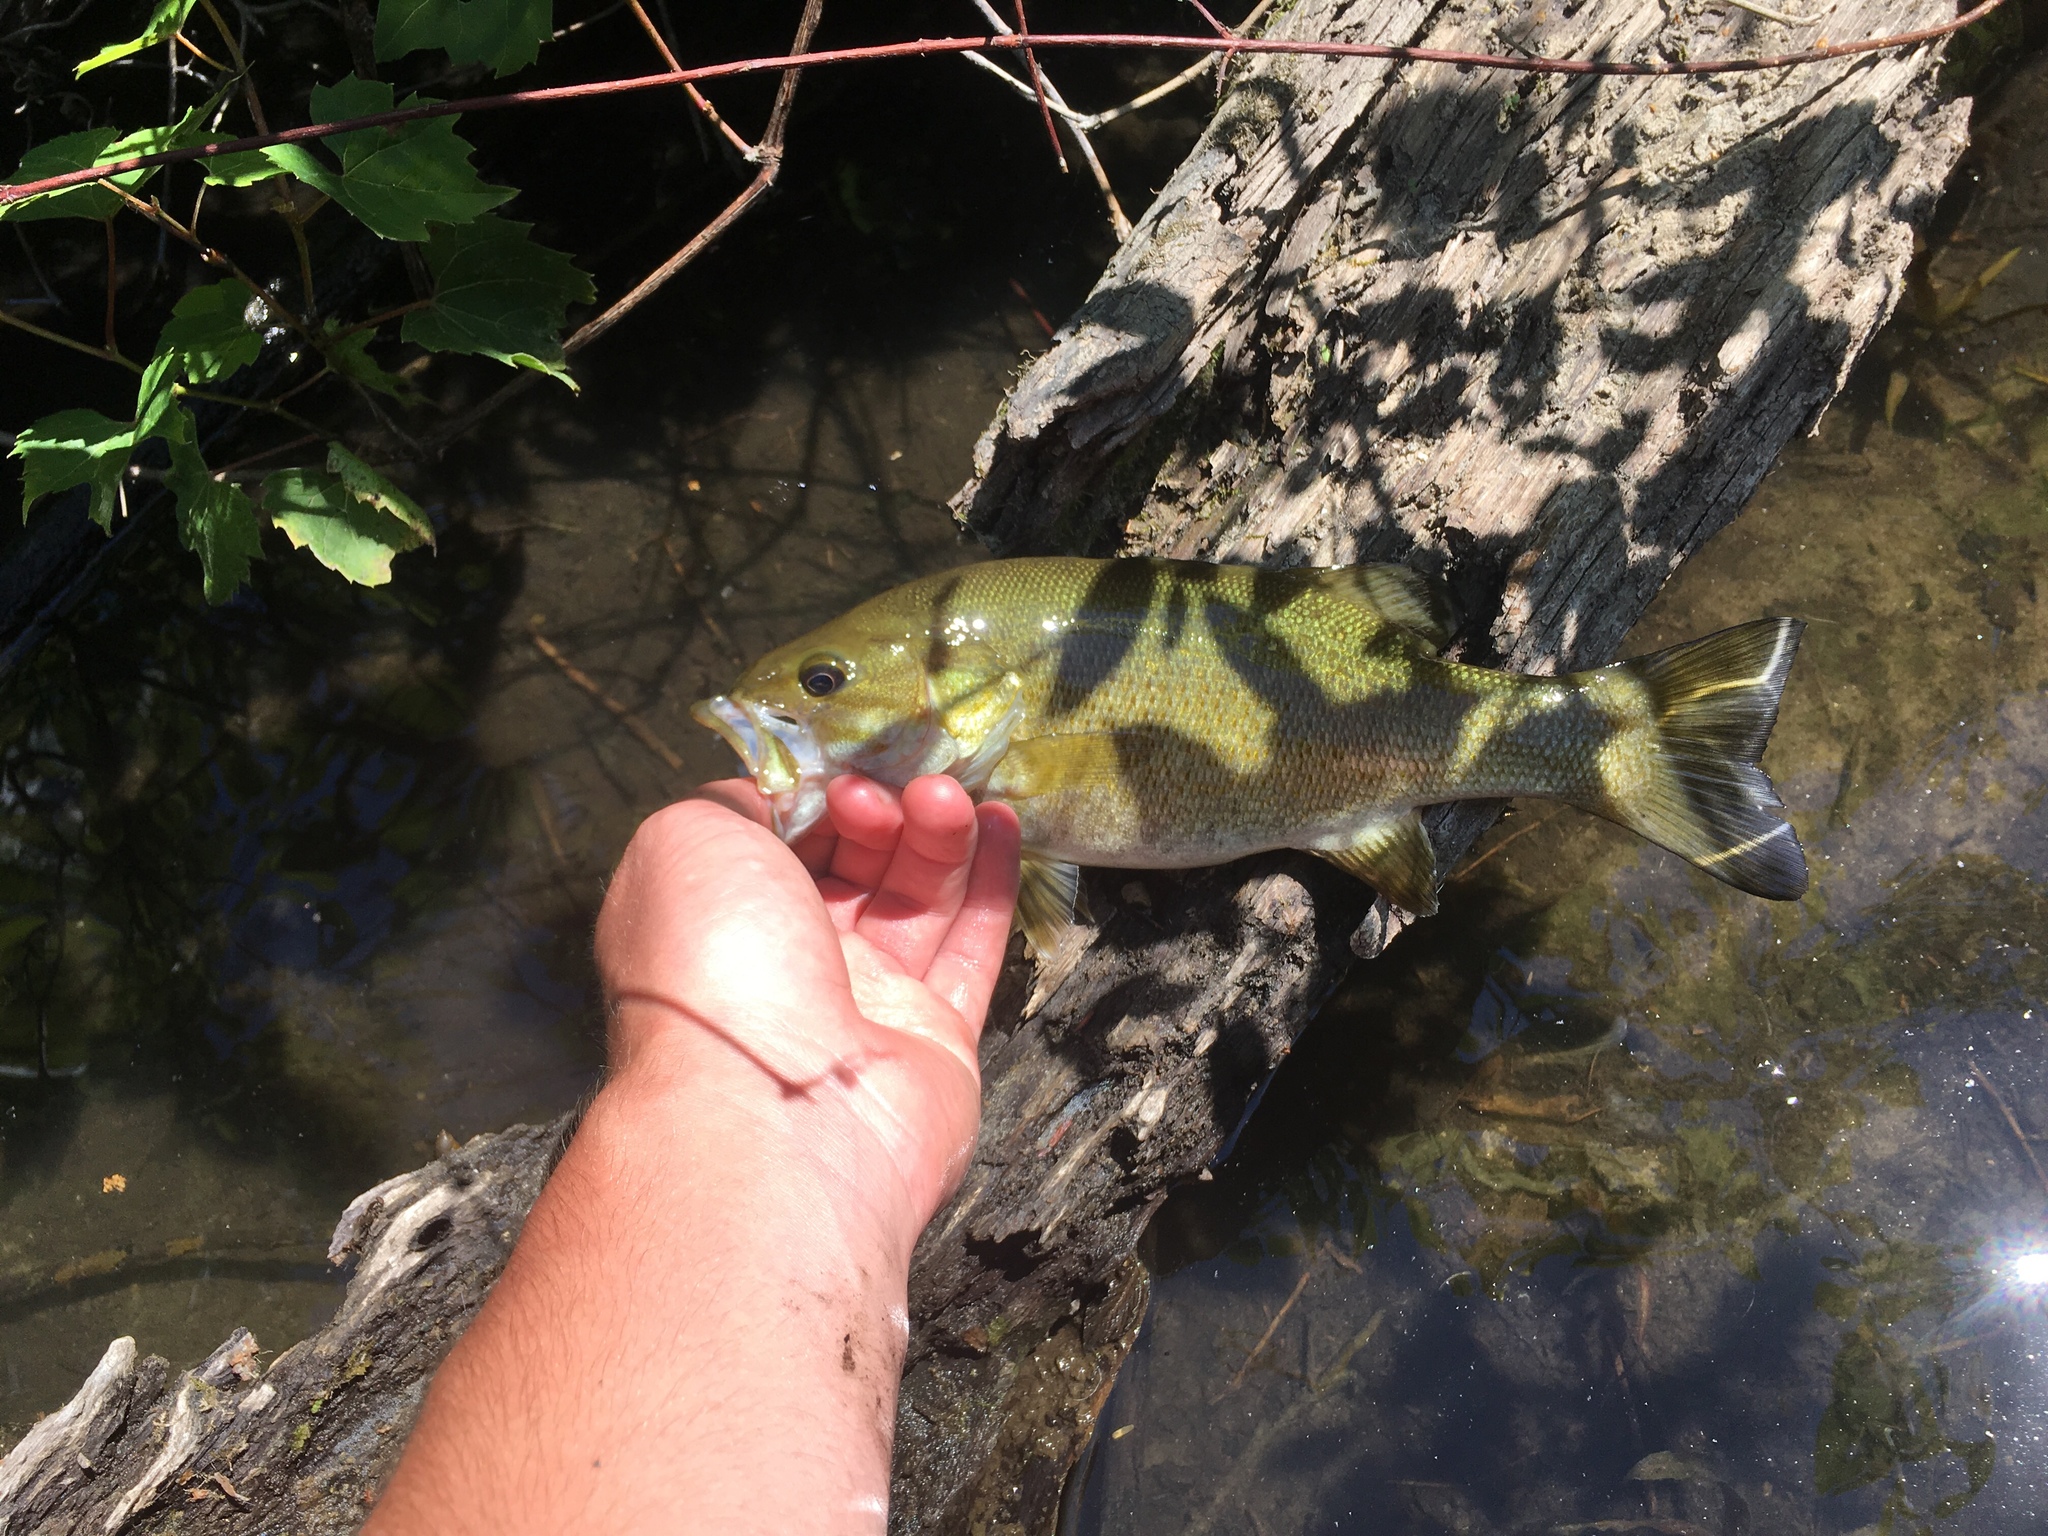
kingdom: Animalia
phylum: Chordata
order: Perciformes
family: Centrarchidae
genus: Micropterus
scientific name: Micropterus dolomieu
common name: Smallmouth bass
